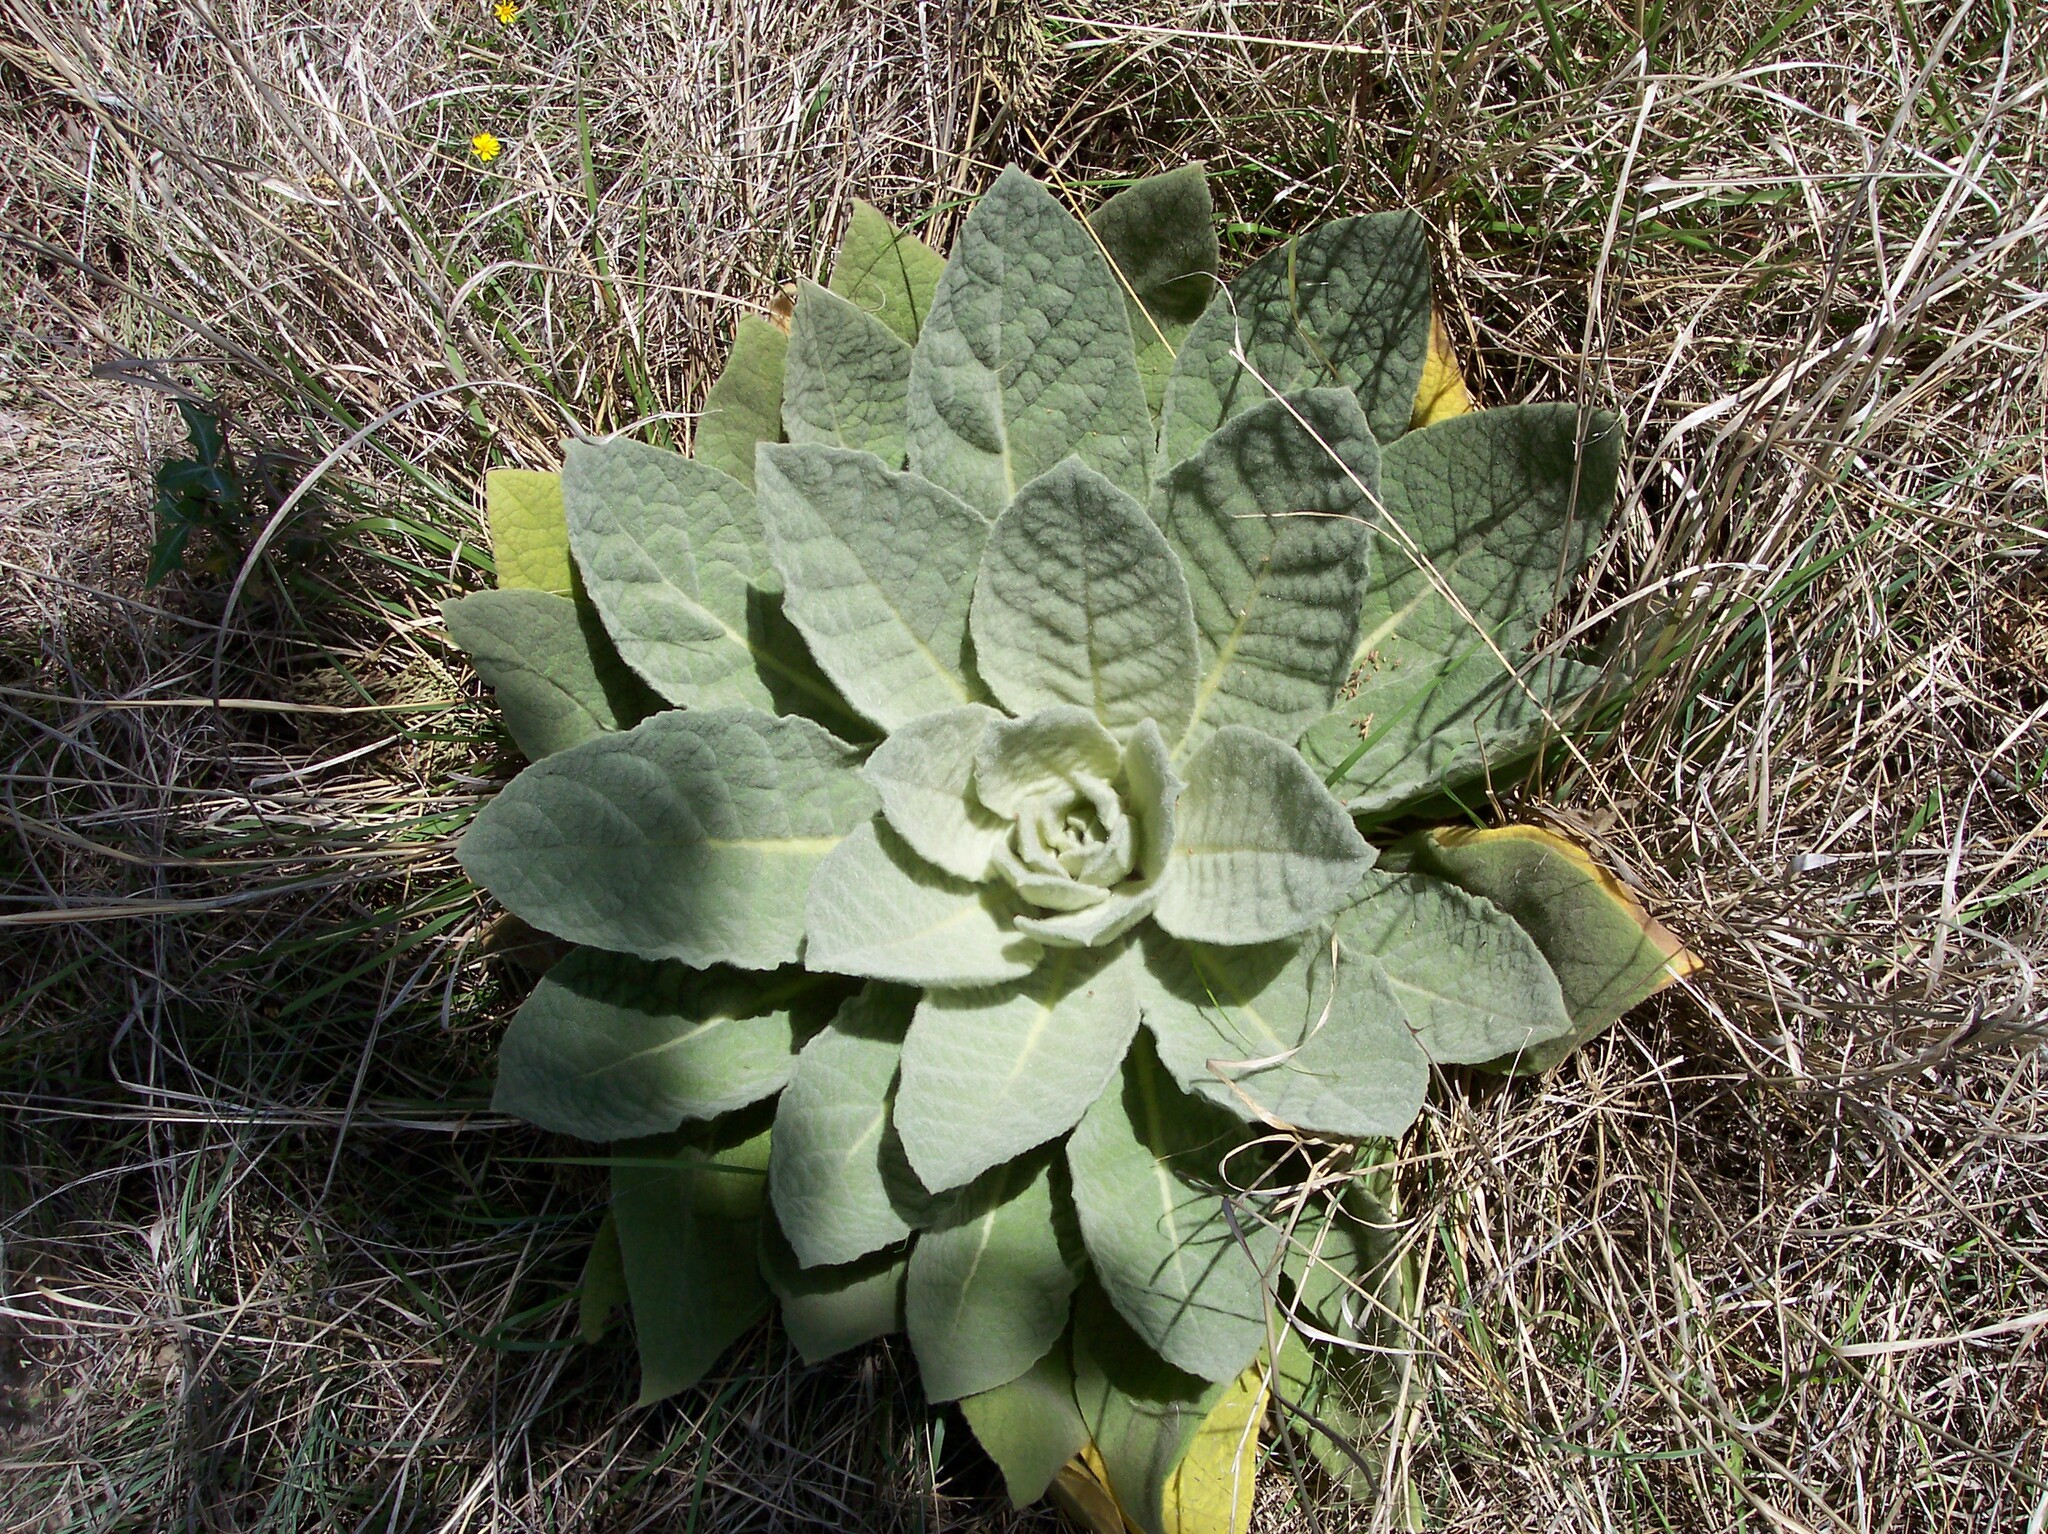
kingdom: Plantae
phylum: Tracheophyta
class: Magnoliopsida
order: Lamiales
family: Scrophulariaceae
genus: Verbascum
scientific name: Verbascum thapsus
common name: Common mullein
